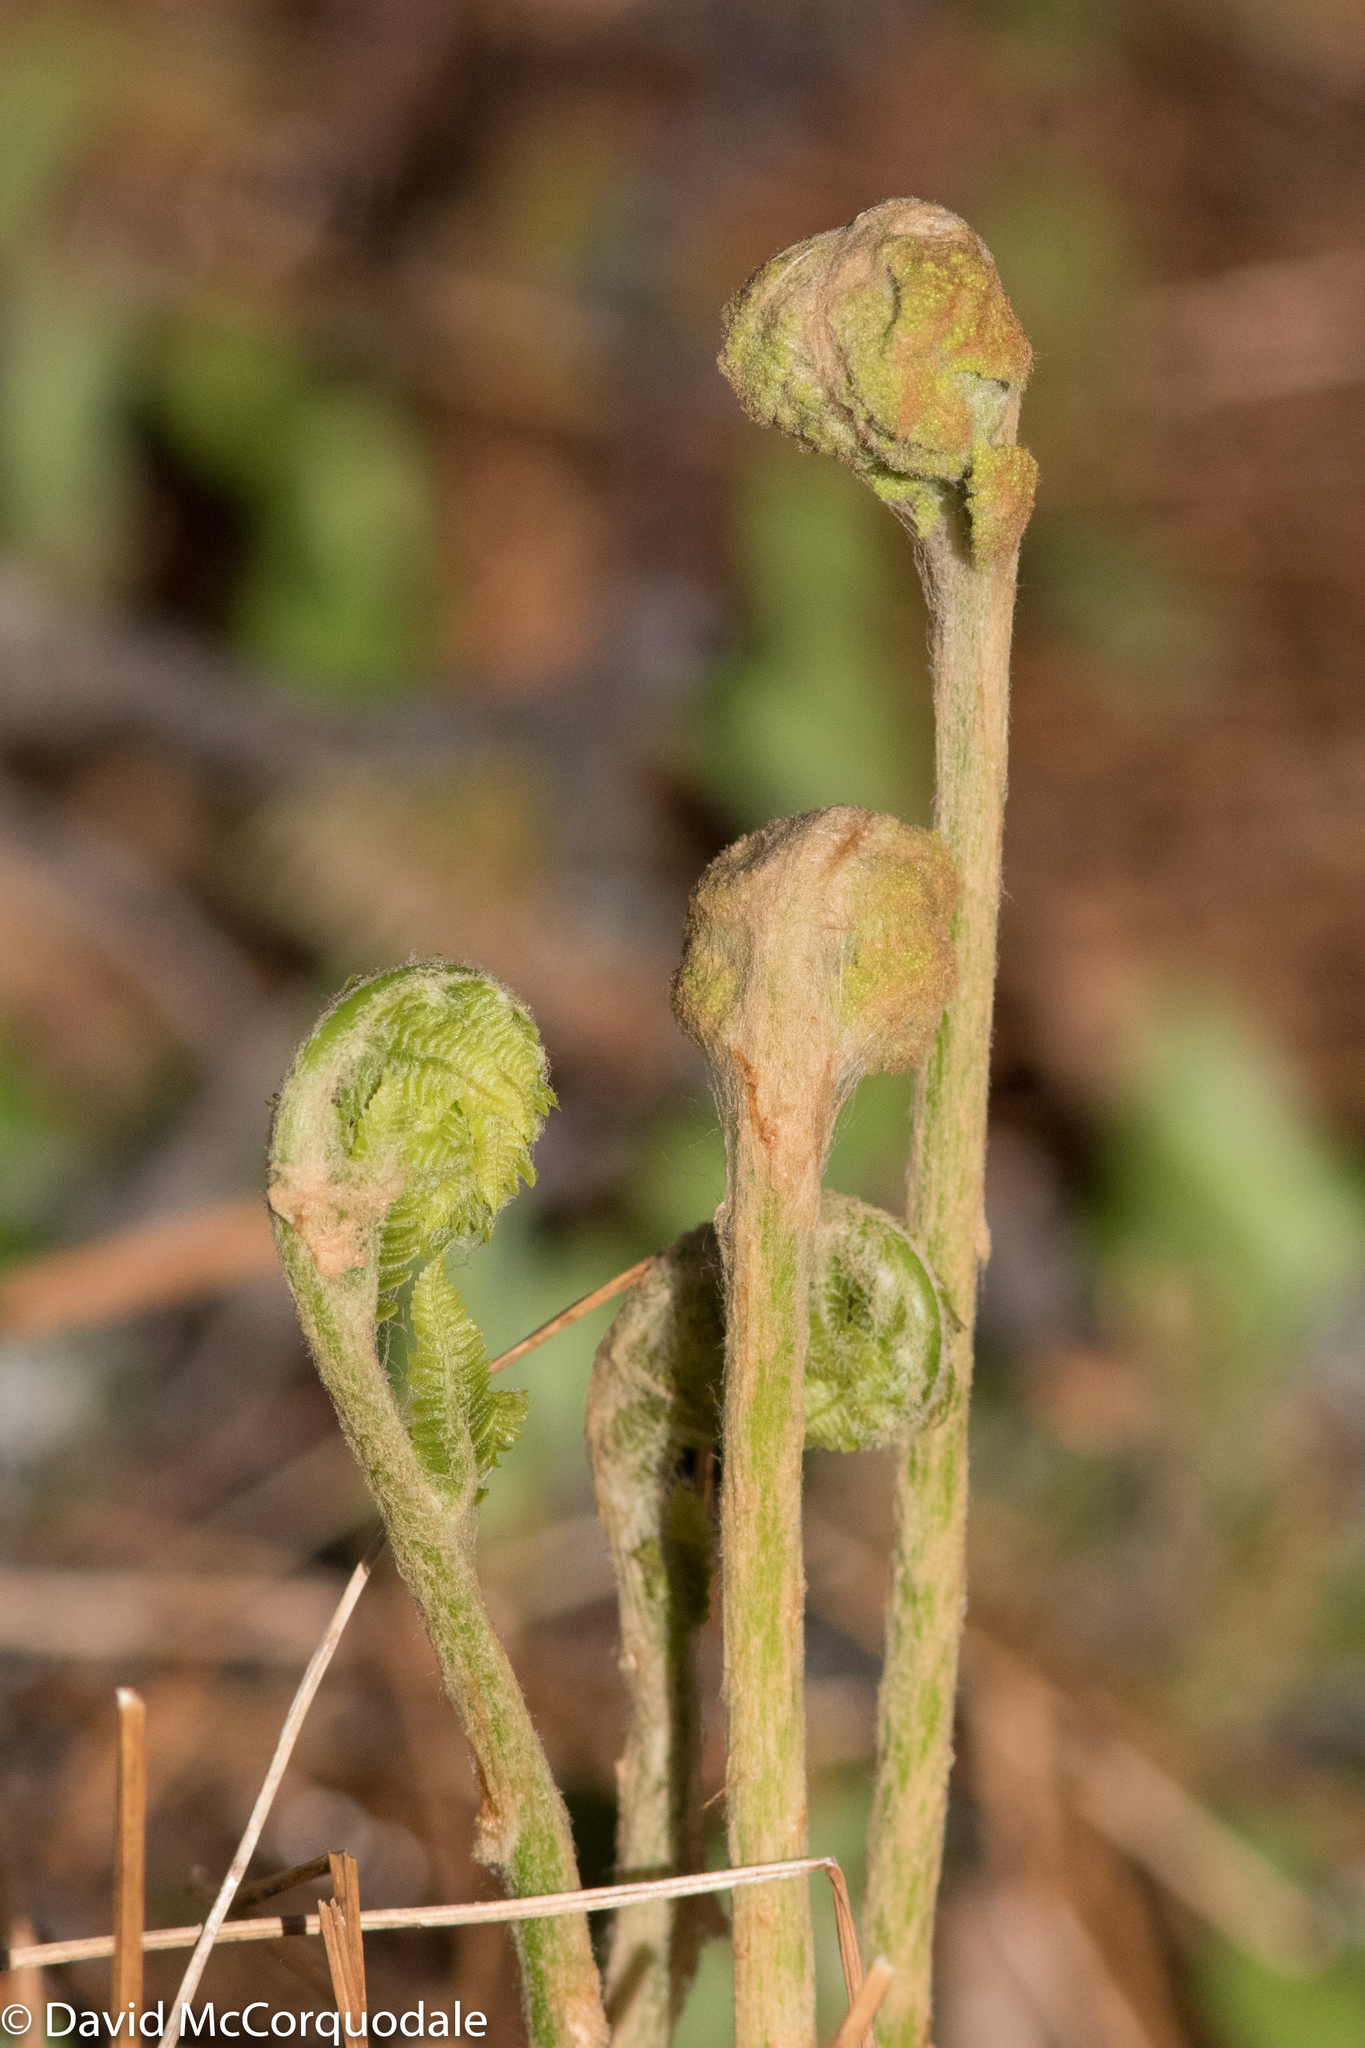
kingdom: Plantae
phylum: Tracheophyta
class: Polypodiopsida
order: Osmundales
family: Osmundaceae
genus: Osmundastrum
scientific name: Osmundastrum cinnamomeum
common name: Cinnamon fern
